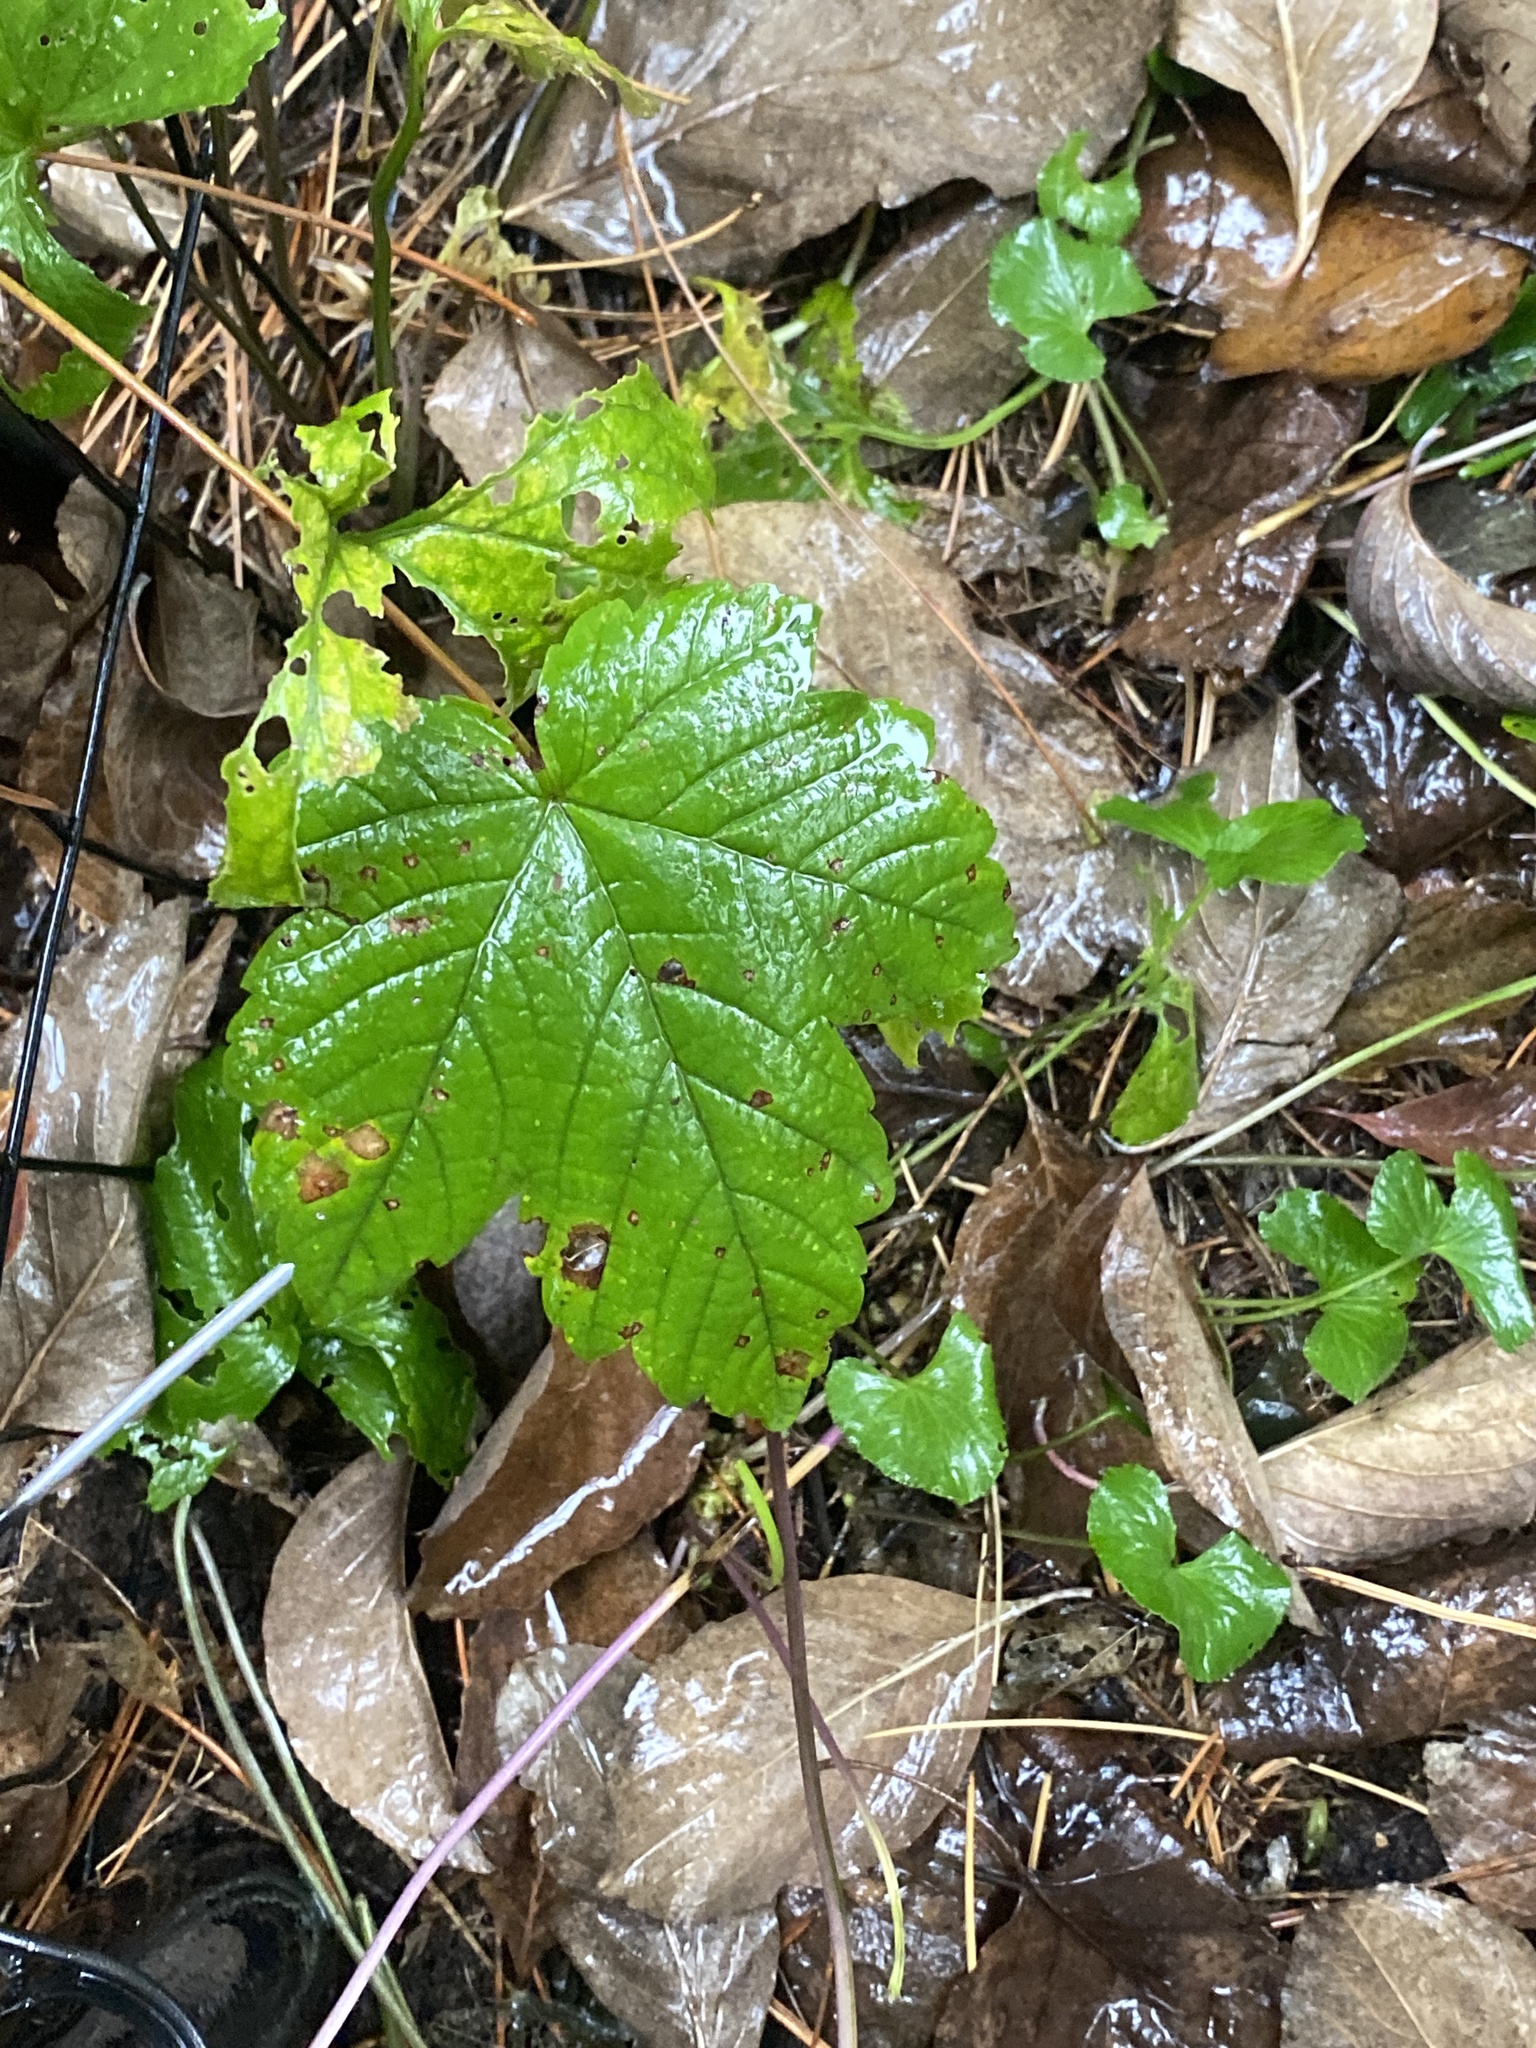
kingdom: Plantae
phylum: Tracheophyta
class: Magnoliopsida
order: Sapindales
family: Sapindaceae
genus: Acer
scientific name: Acer pseudoplatanus
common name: Sycamore
